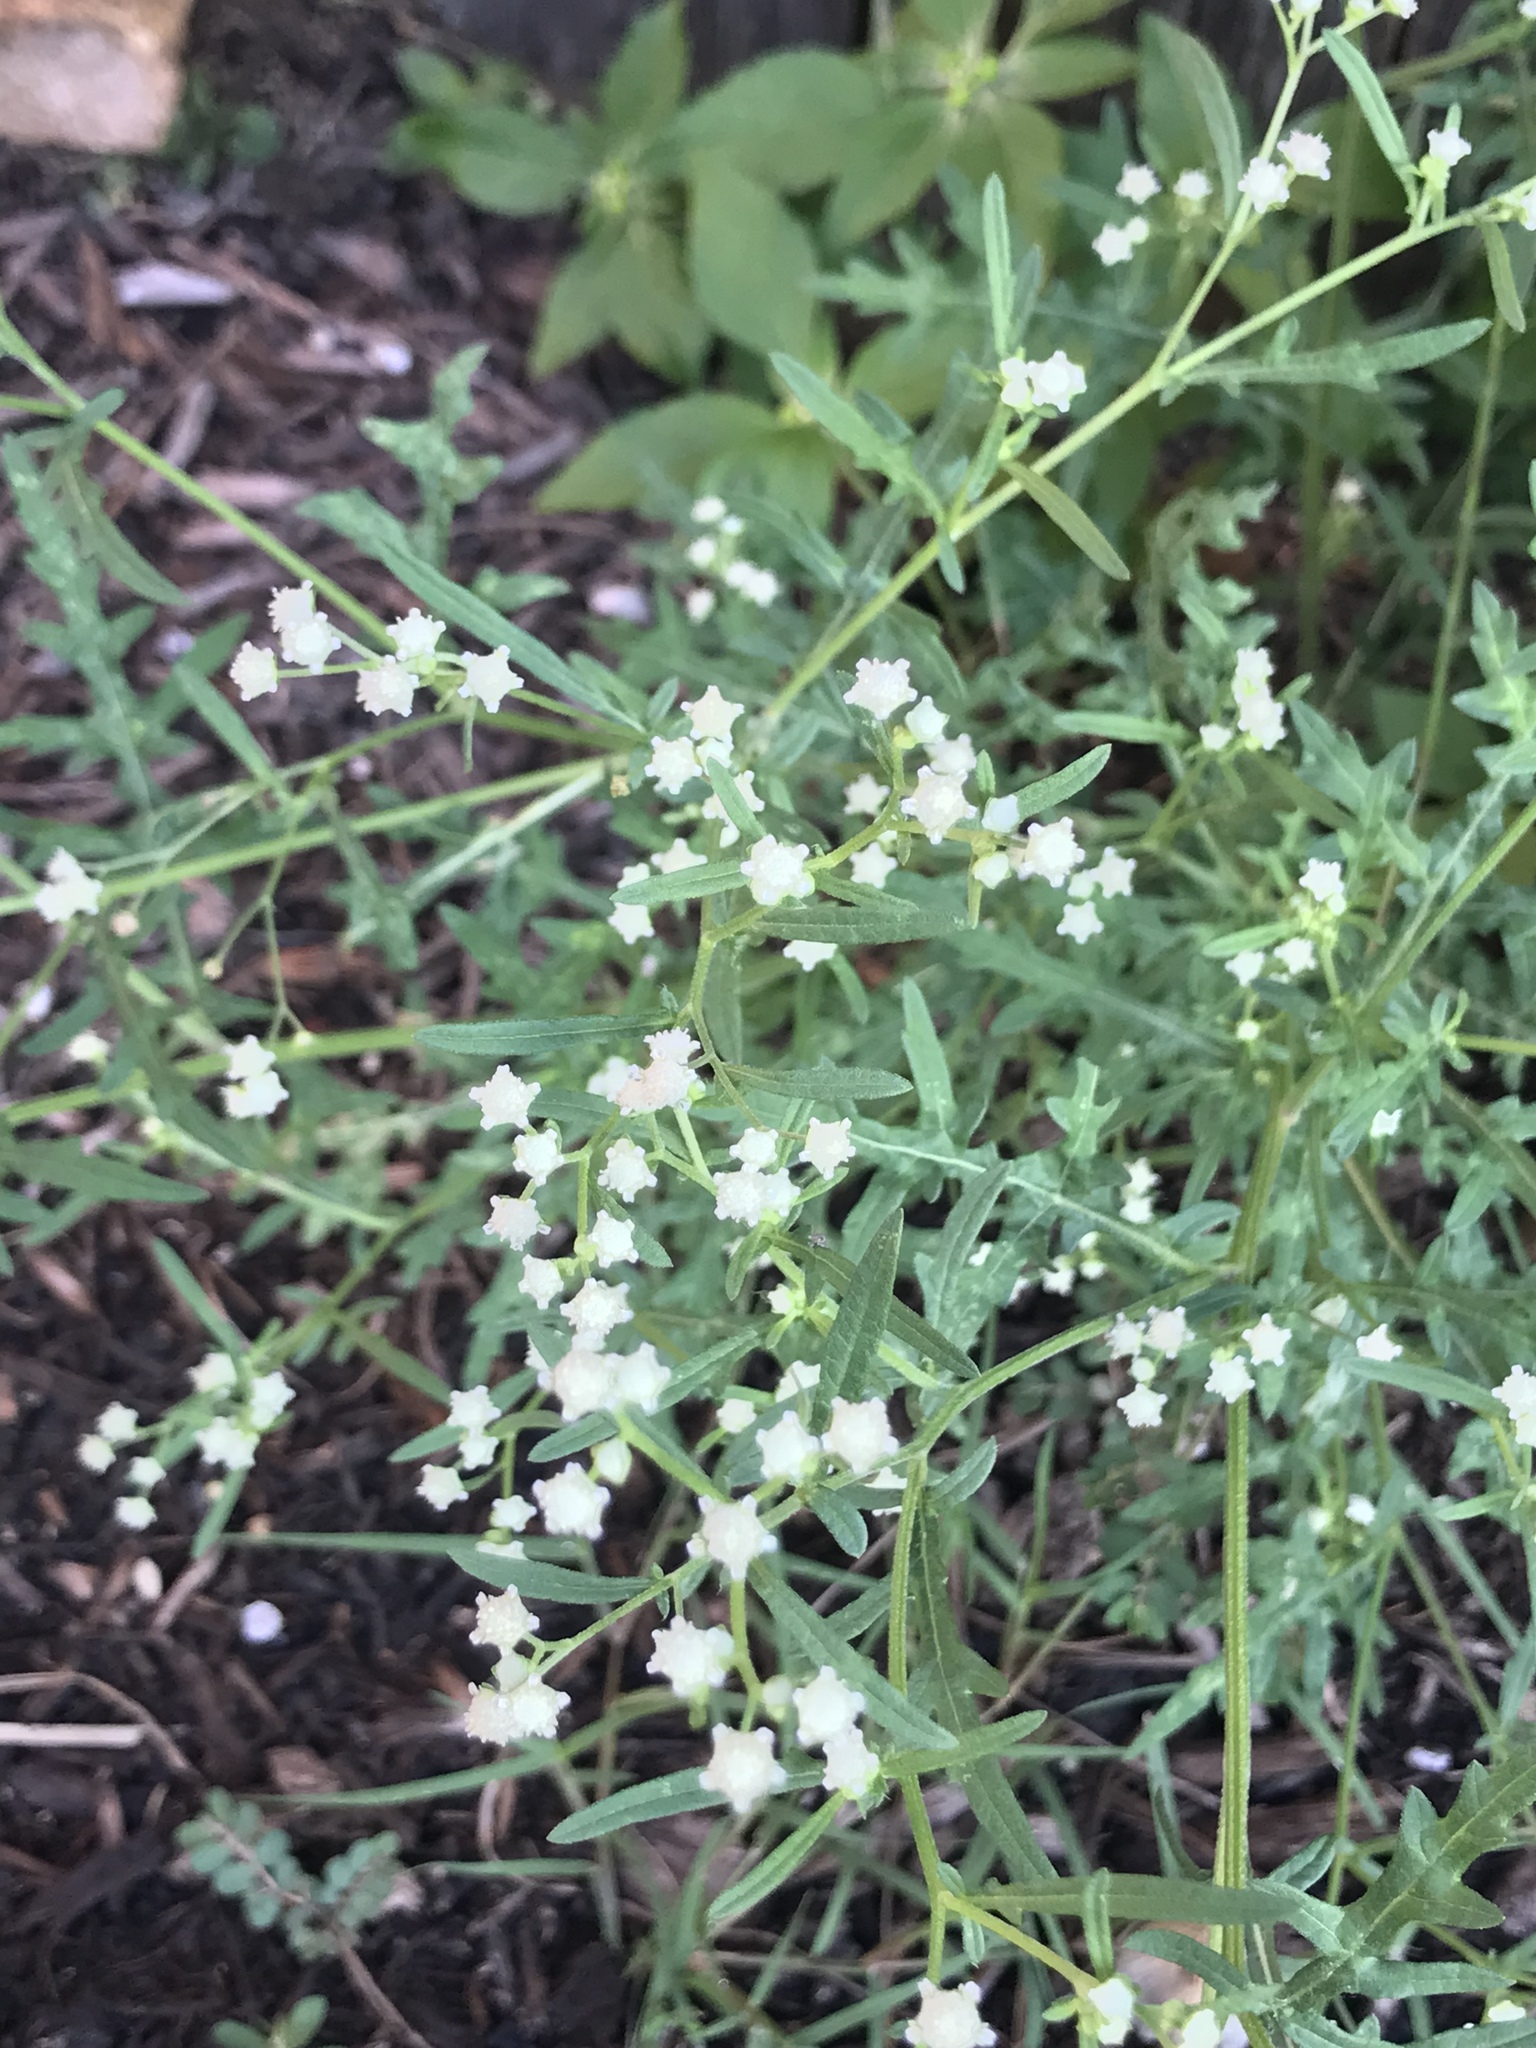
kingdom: Plantae
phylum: Tracheophyta
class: Magnoliopsida
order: Asterales
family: Asteraceae
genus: Parthenium
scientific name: Parthenium hysterophorus
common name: Santa maria feverfew
